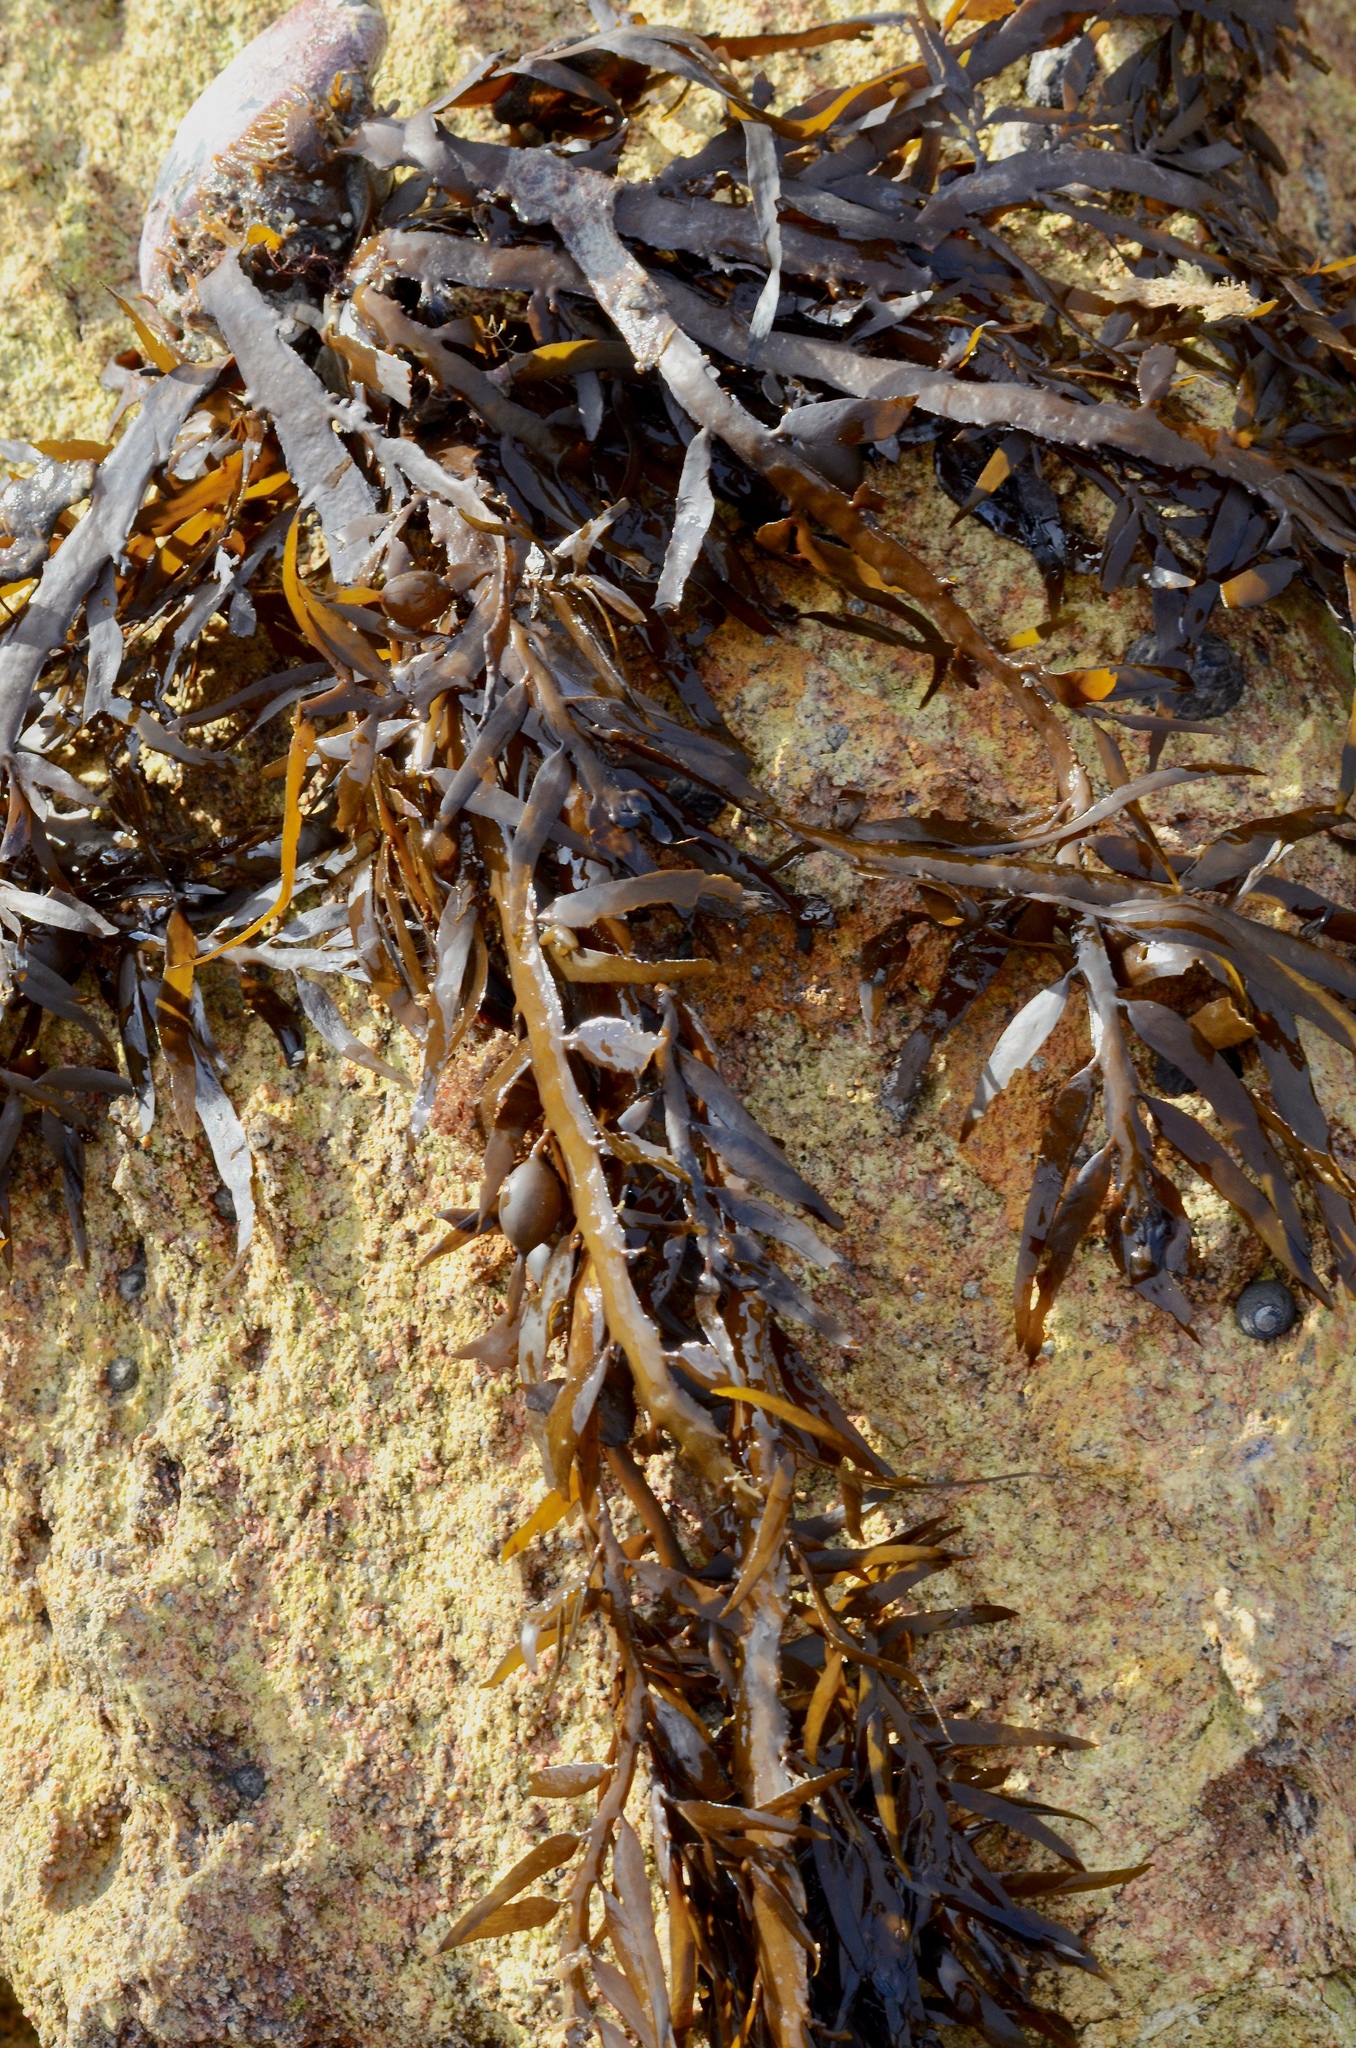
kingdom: Chromista
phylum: Ochrophyta
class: Phaeophyceae
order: Fucales
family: Sargassaceae
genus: Carpophyllum
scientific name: Carpophyllum maschalocarpum
